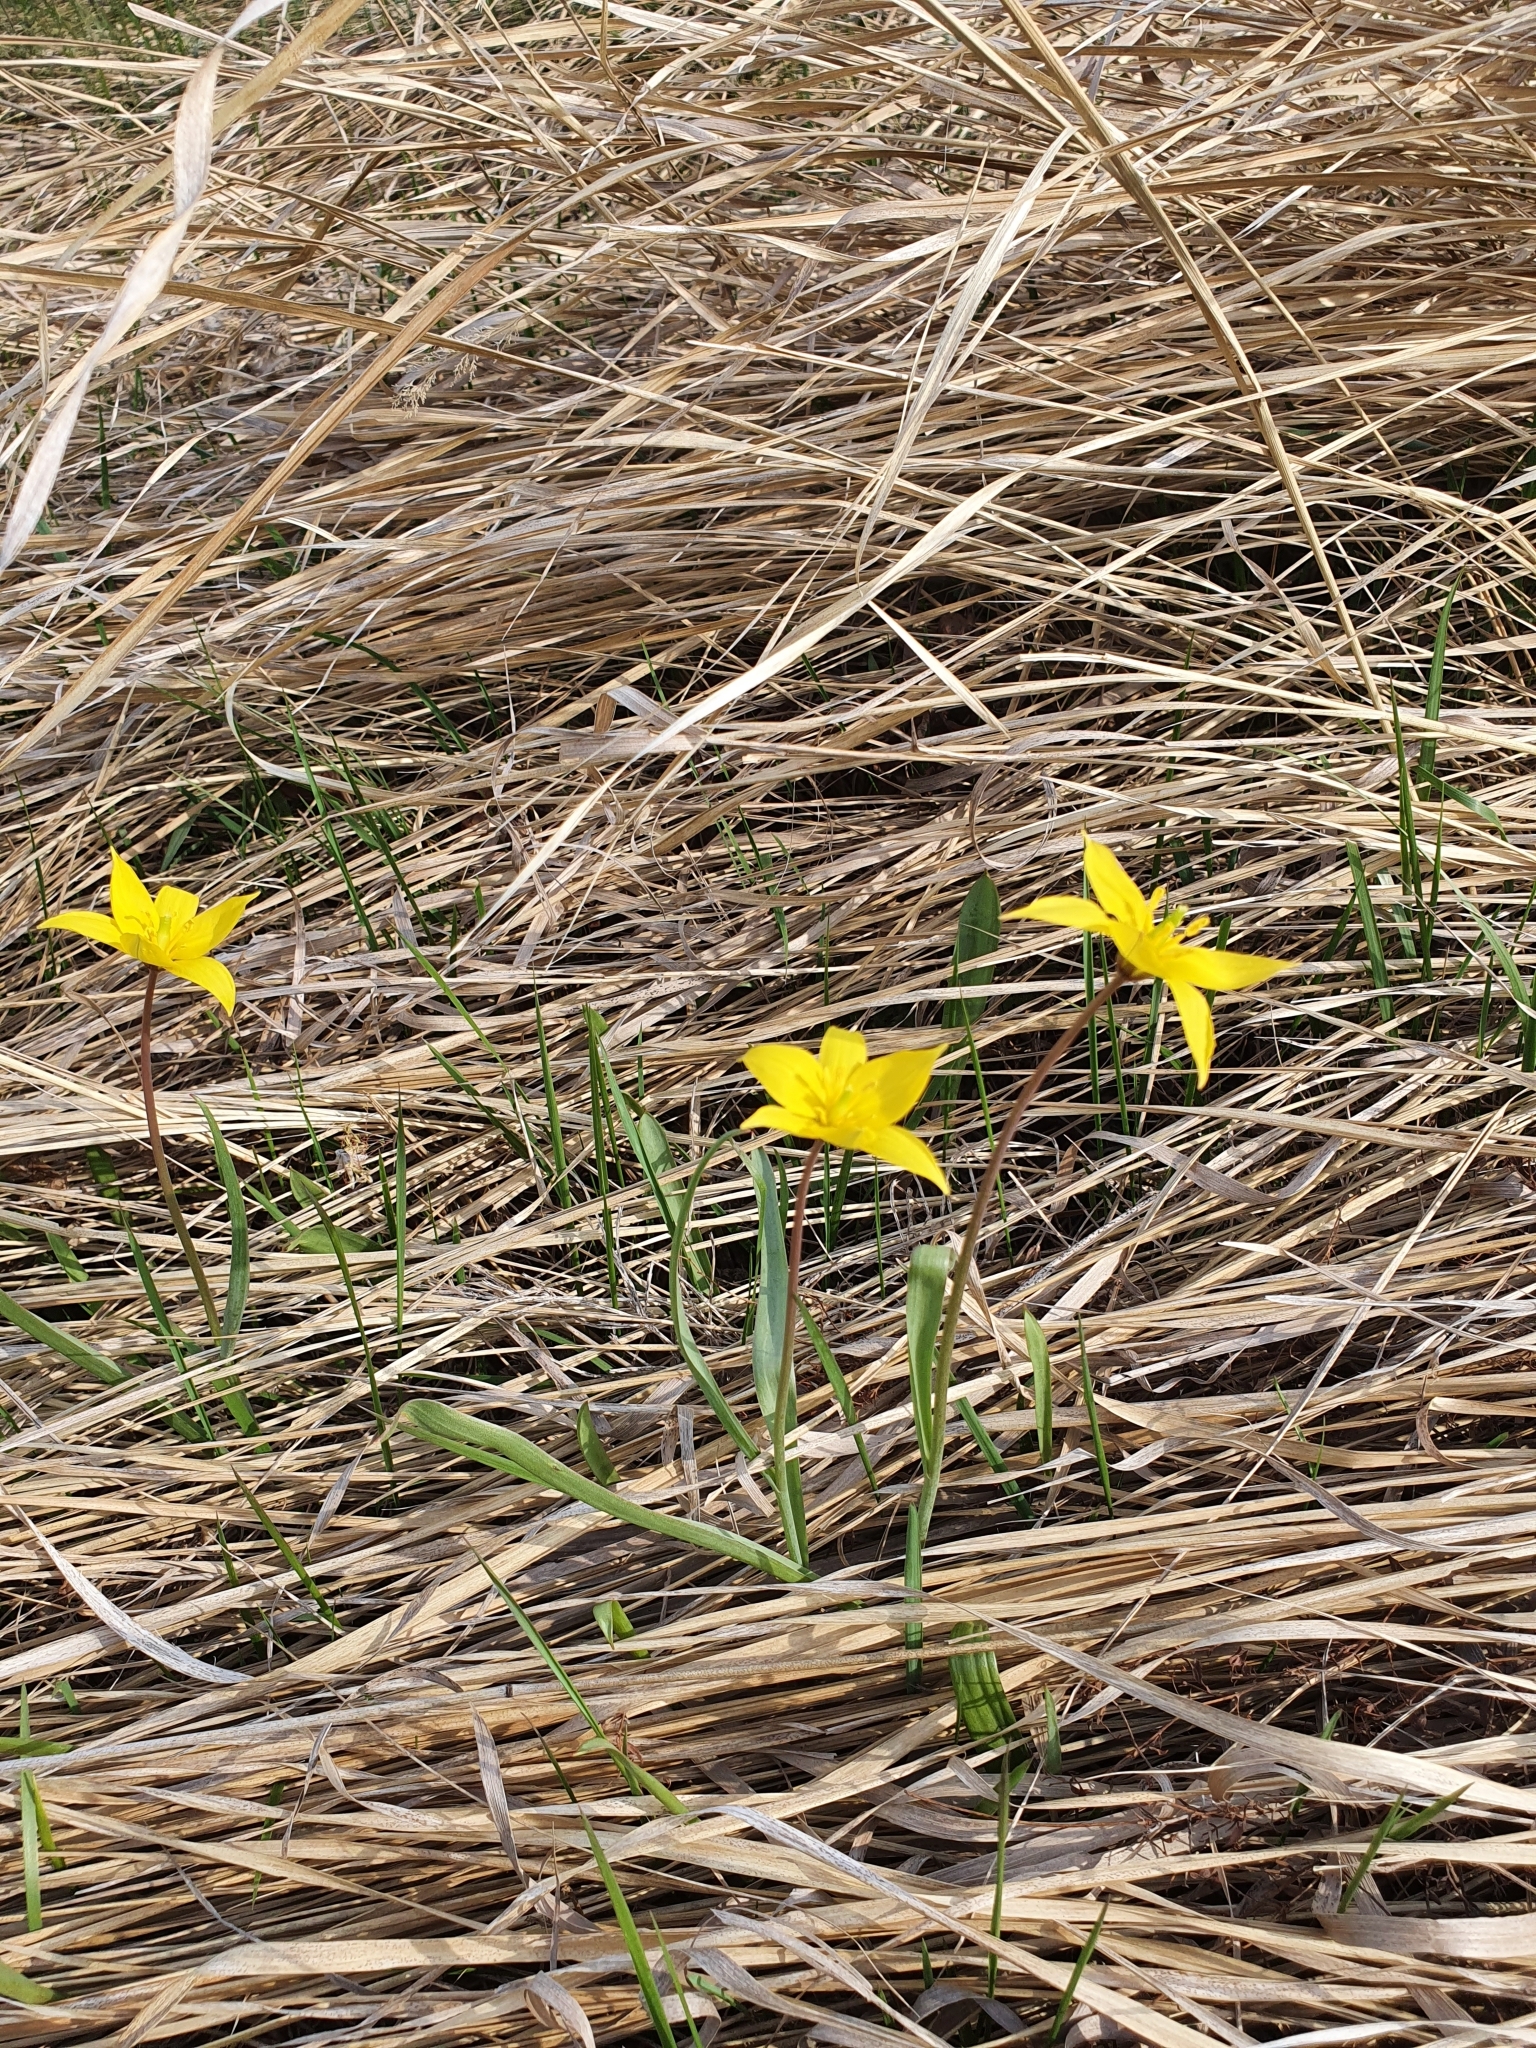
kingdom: Plantae
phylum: Tracheophyta
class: Liliopsida
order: Liliales
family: Liliaceae
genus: Tulipa
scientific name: Tulipa sylvestris
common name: Wild tulip
